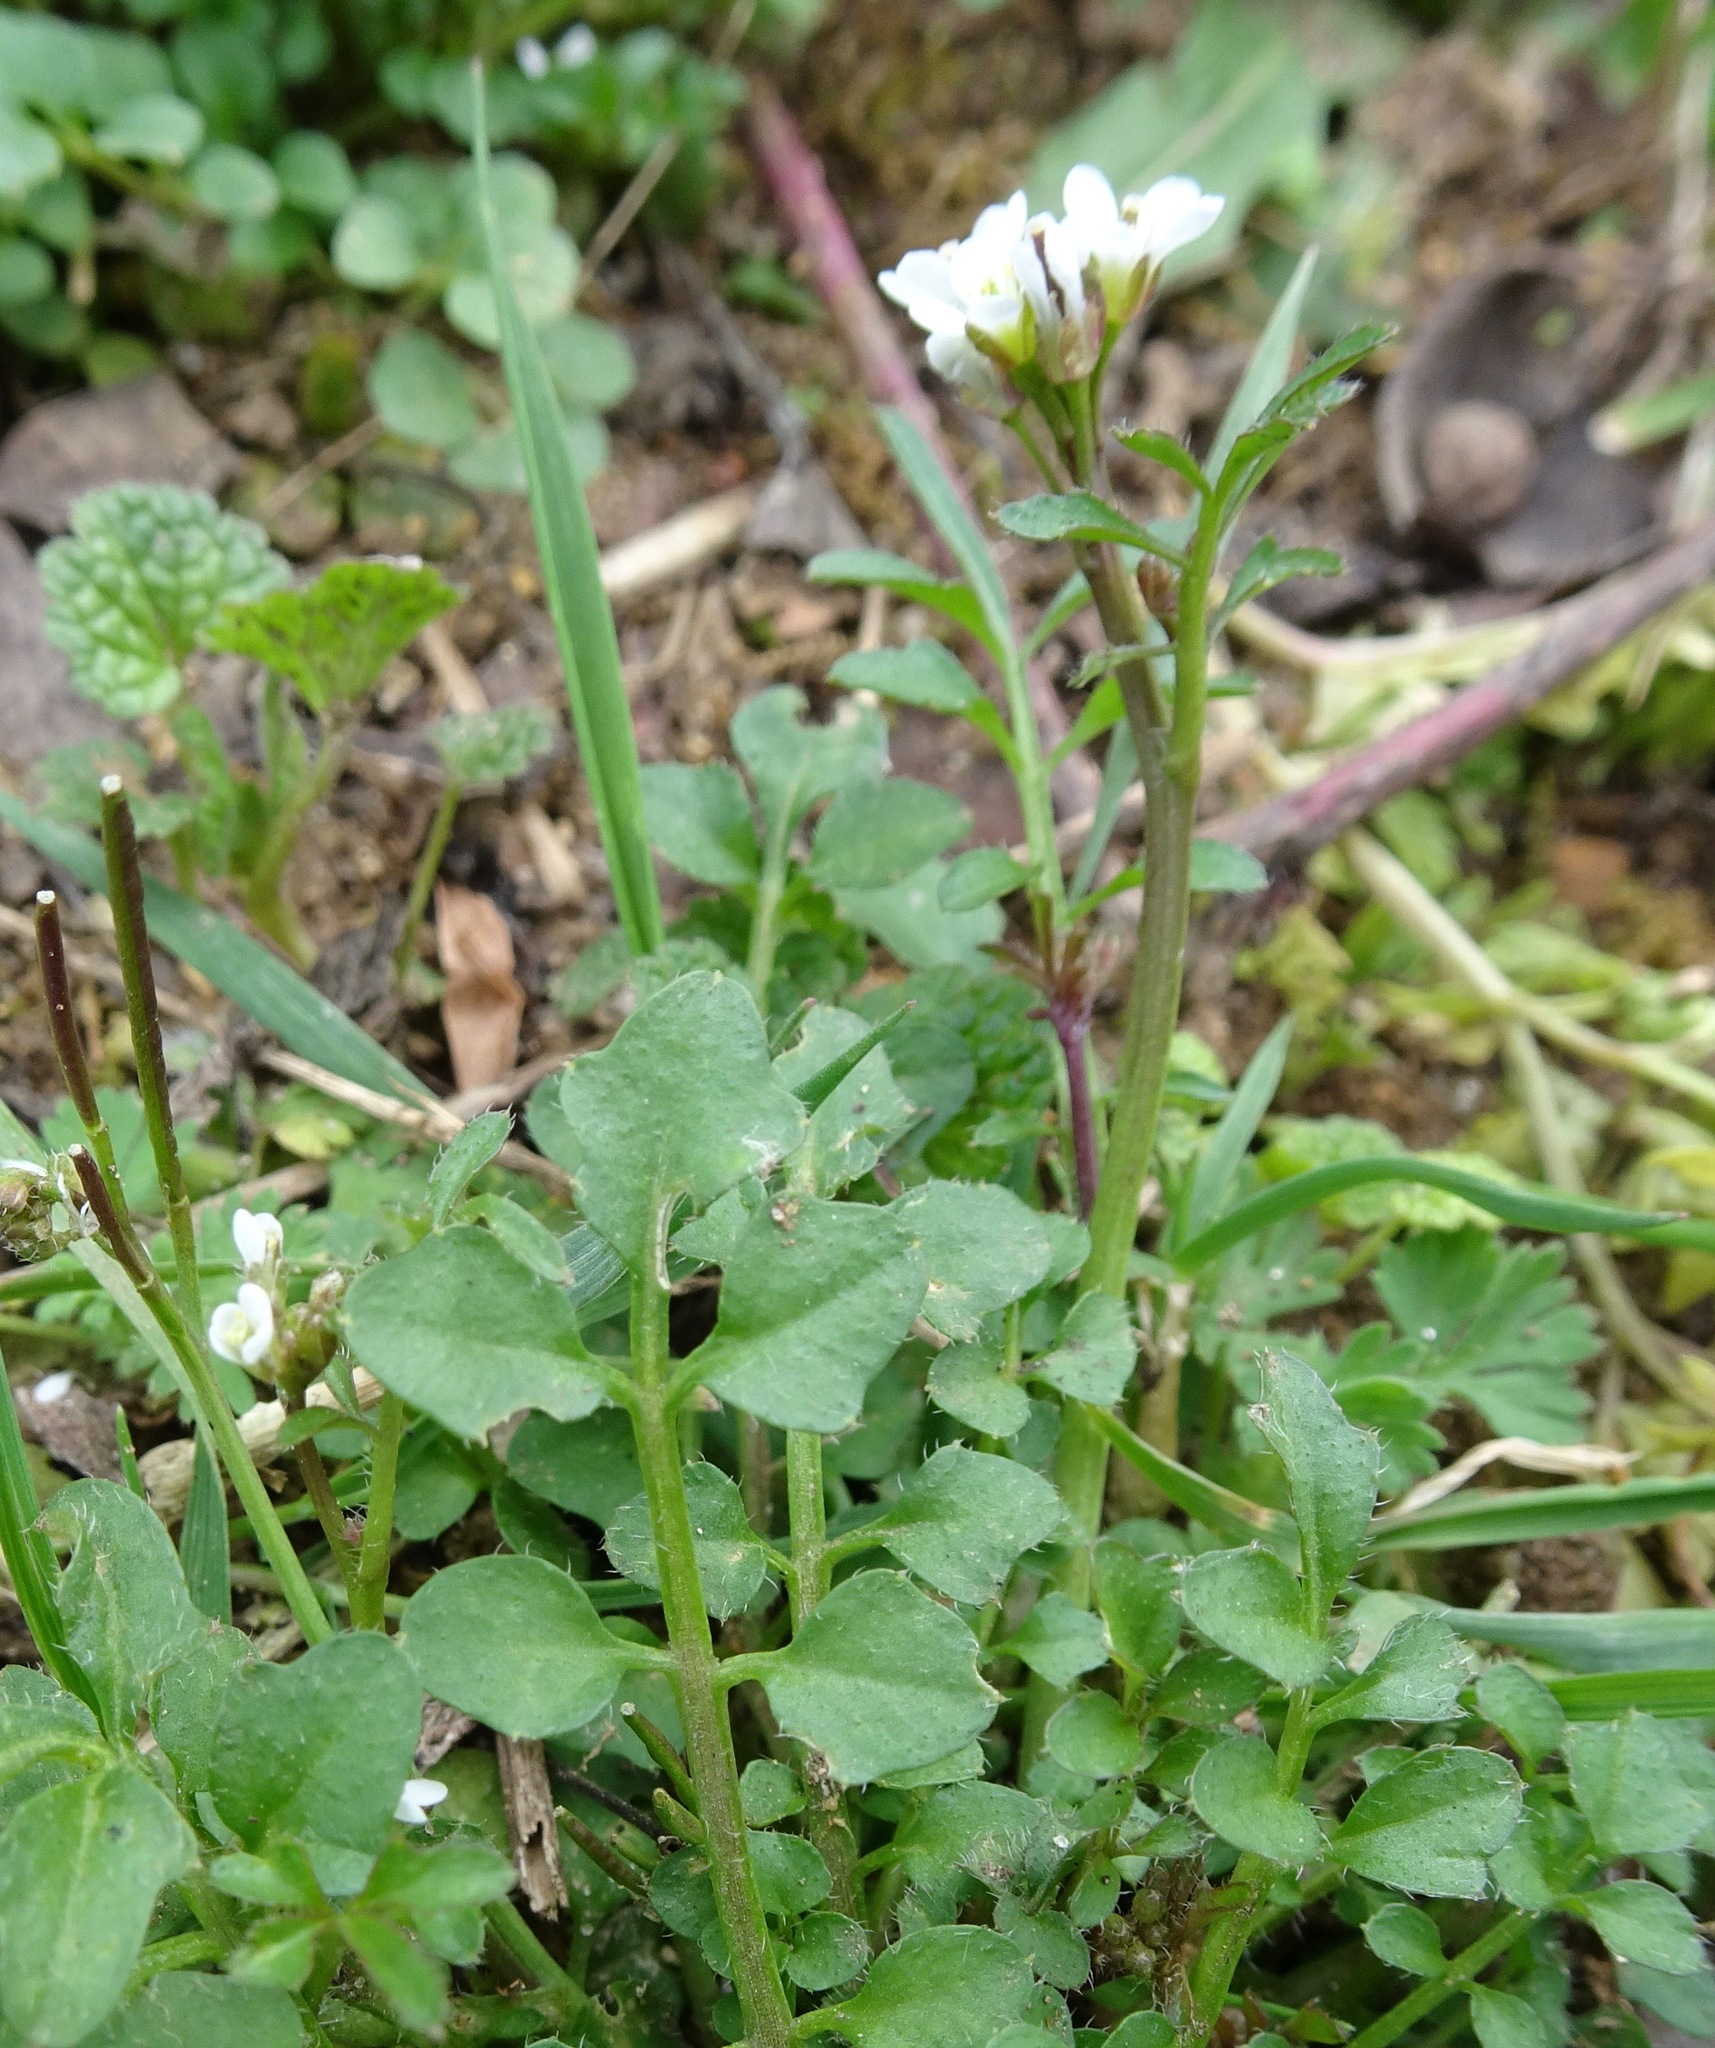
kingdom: Plantae
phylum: Tracheophyta
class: Magnoliopsida
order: Brassicales
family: Brassicaceae
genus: Cardamine
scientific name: Cardamine hirsuta
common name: Hairy bittercress
